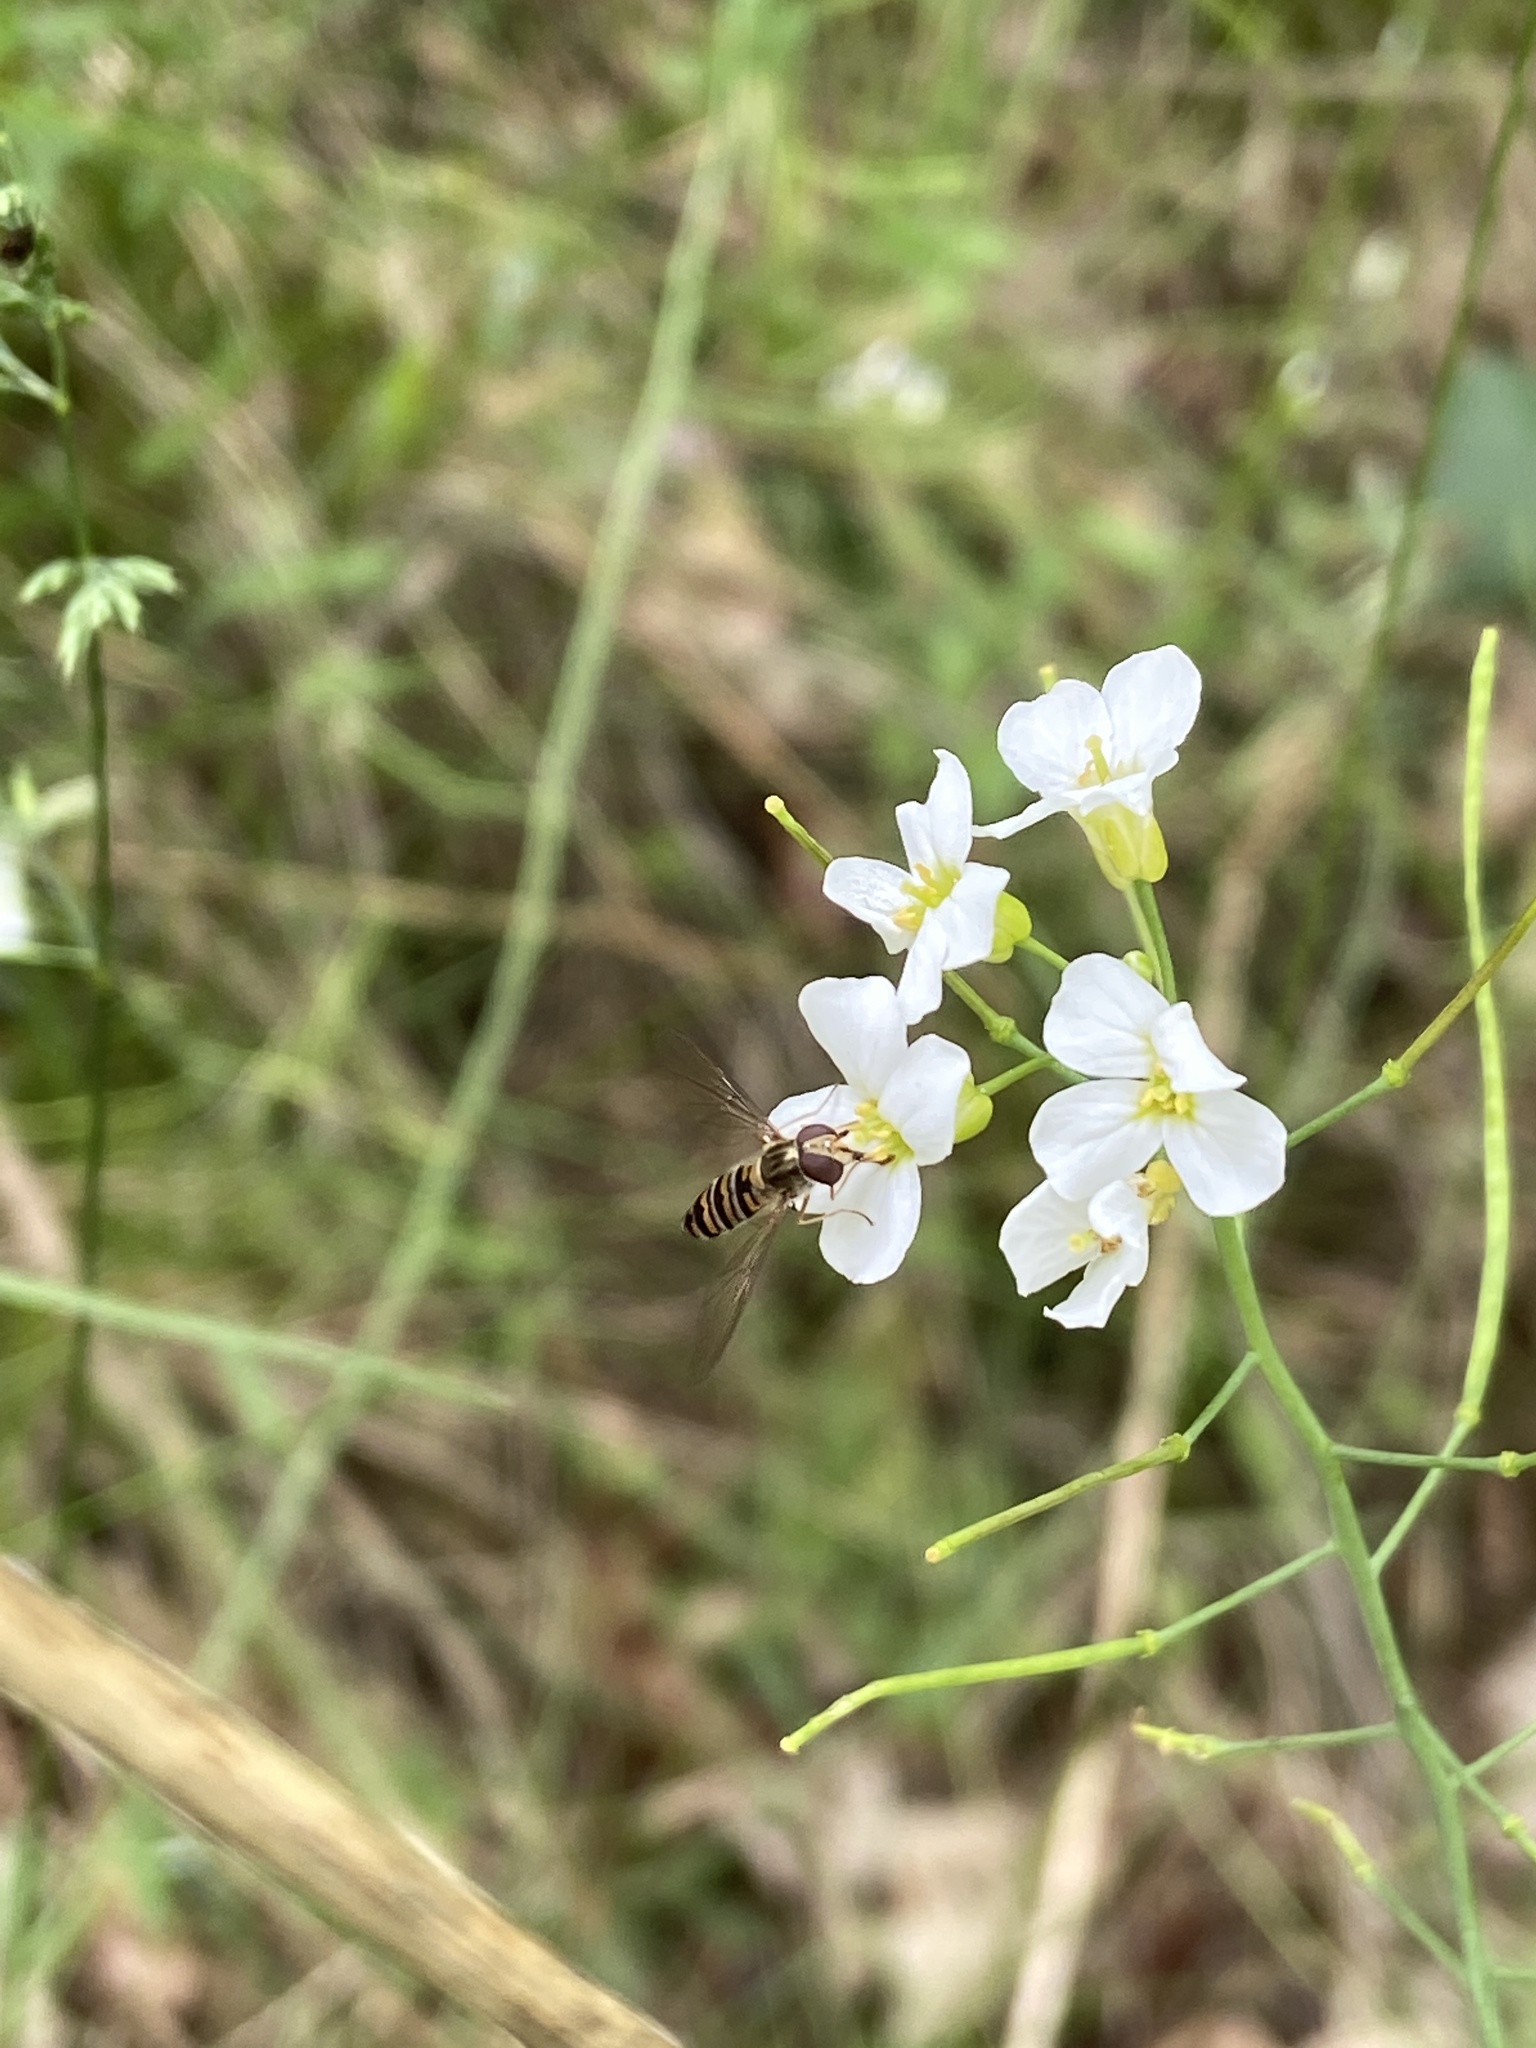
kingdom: Plantae
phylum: Tracheophyta
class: Magnoliopsida
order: Brassicales
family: Brassicaceae
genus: Arabidopsis
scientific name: Arabidopsis arenosa
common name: Sand rock-cress
